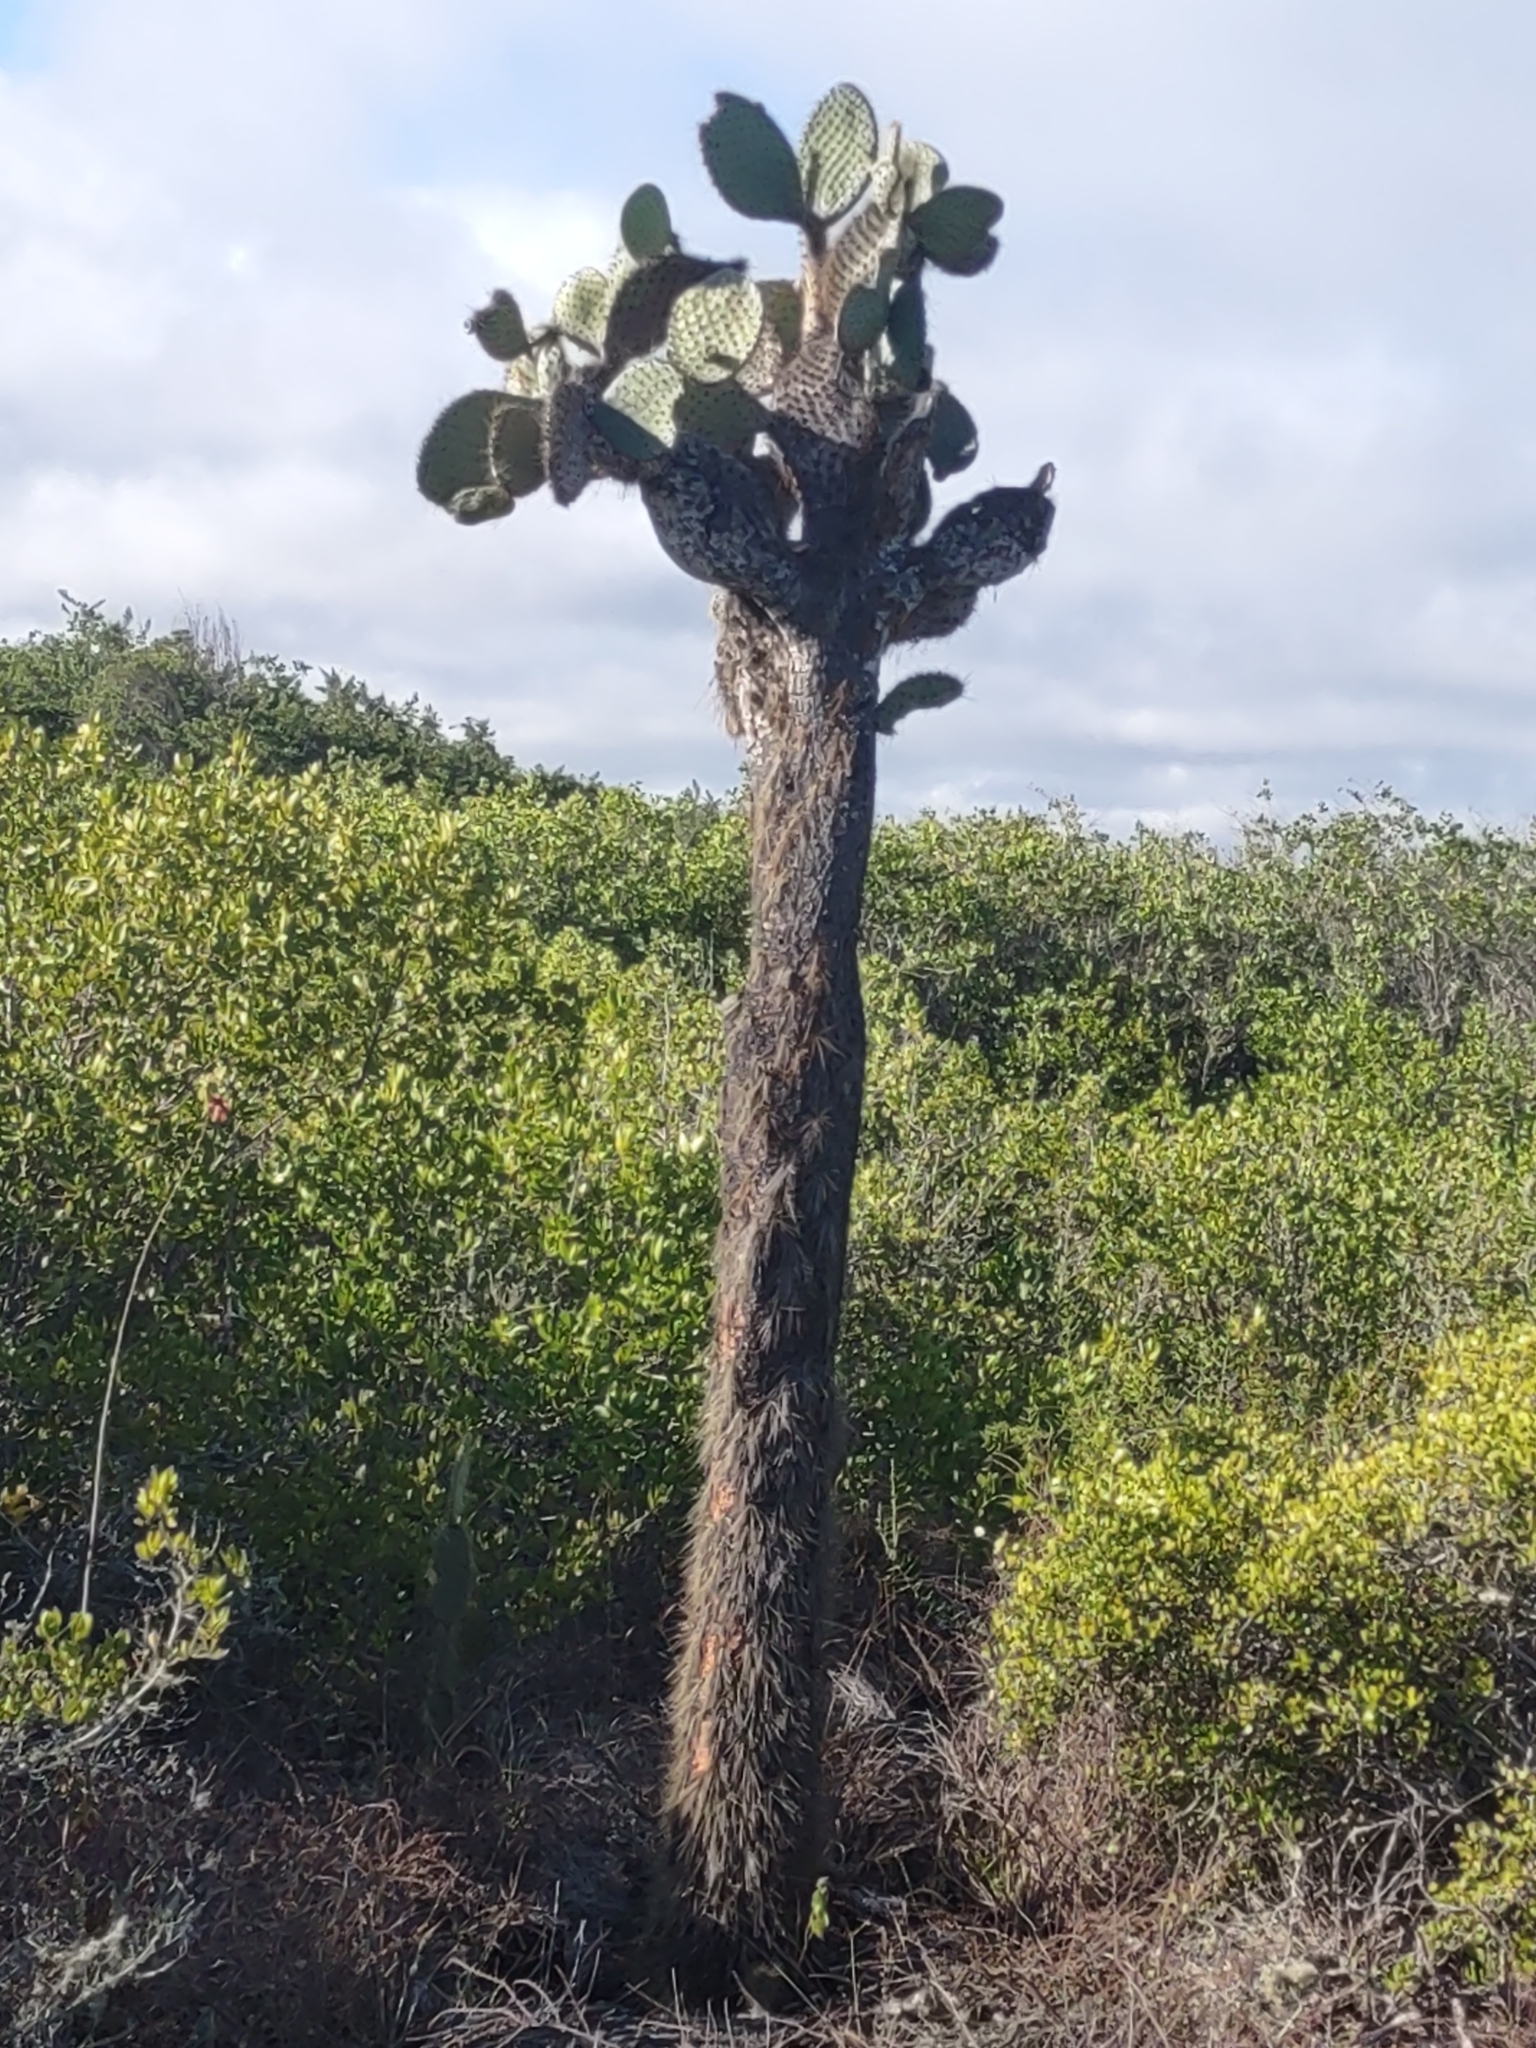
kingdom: Plantae
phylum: Tracheophyta
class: Magnoliopsida
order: Caryophyllales
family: Cactaceae
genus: Opuntia
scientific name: Opuntia galapageia
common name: Galápagos prickly pear
